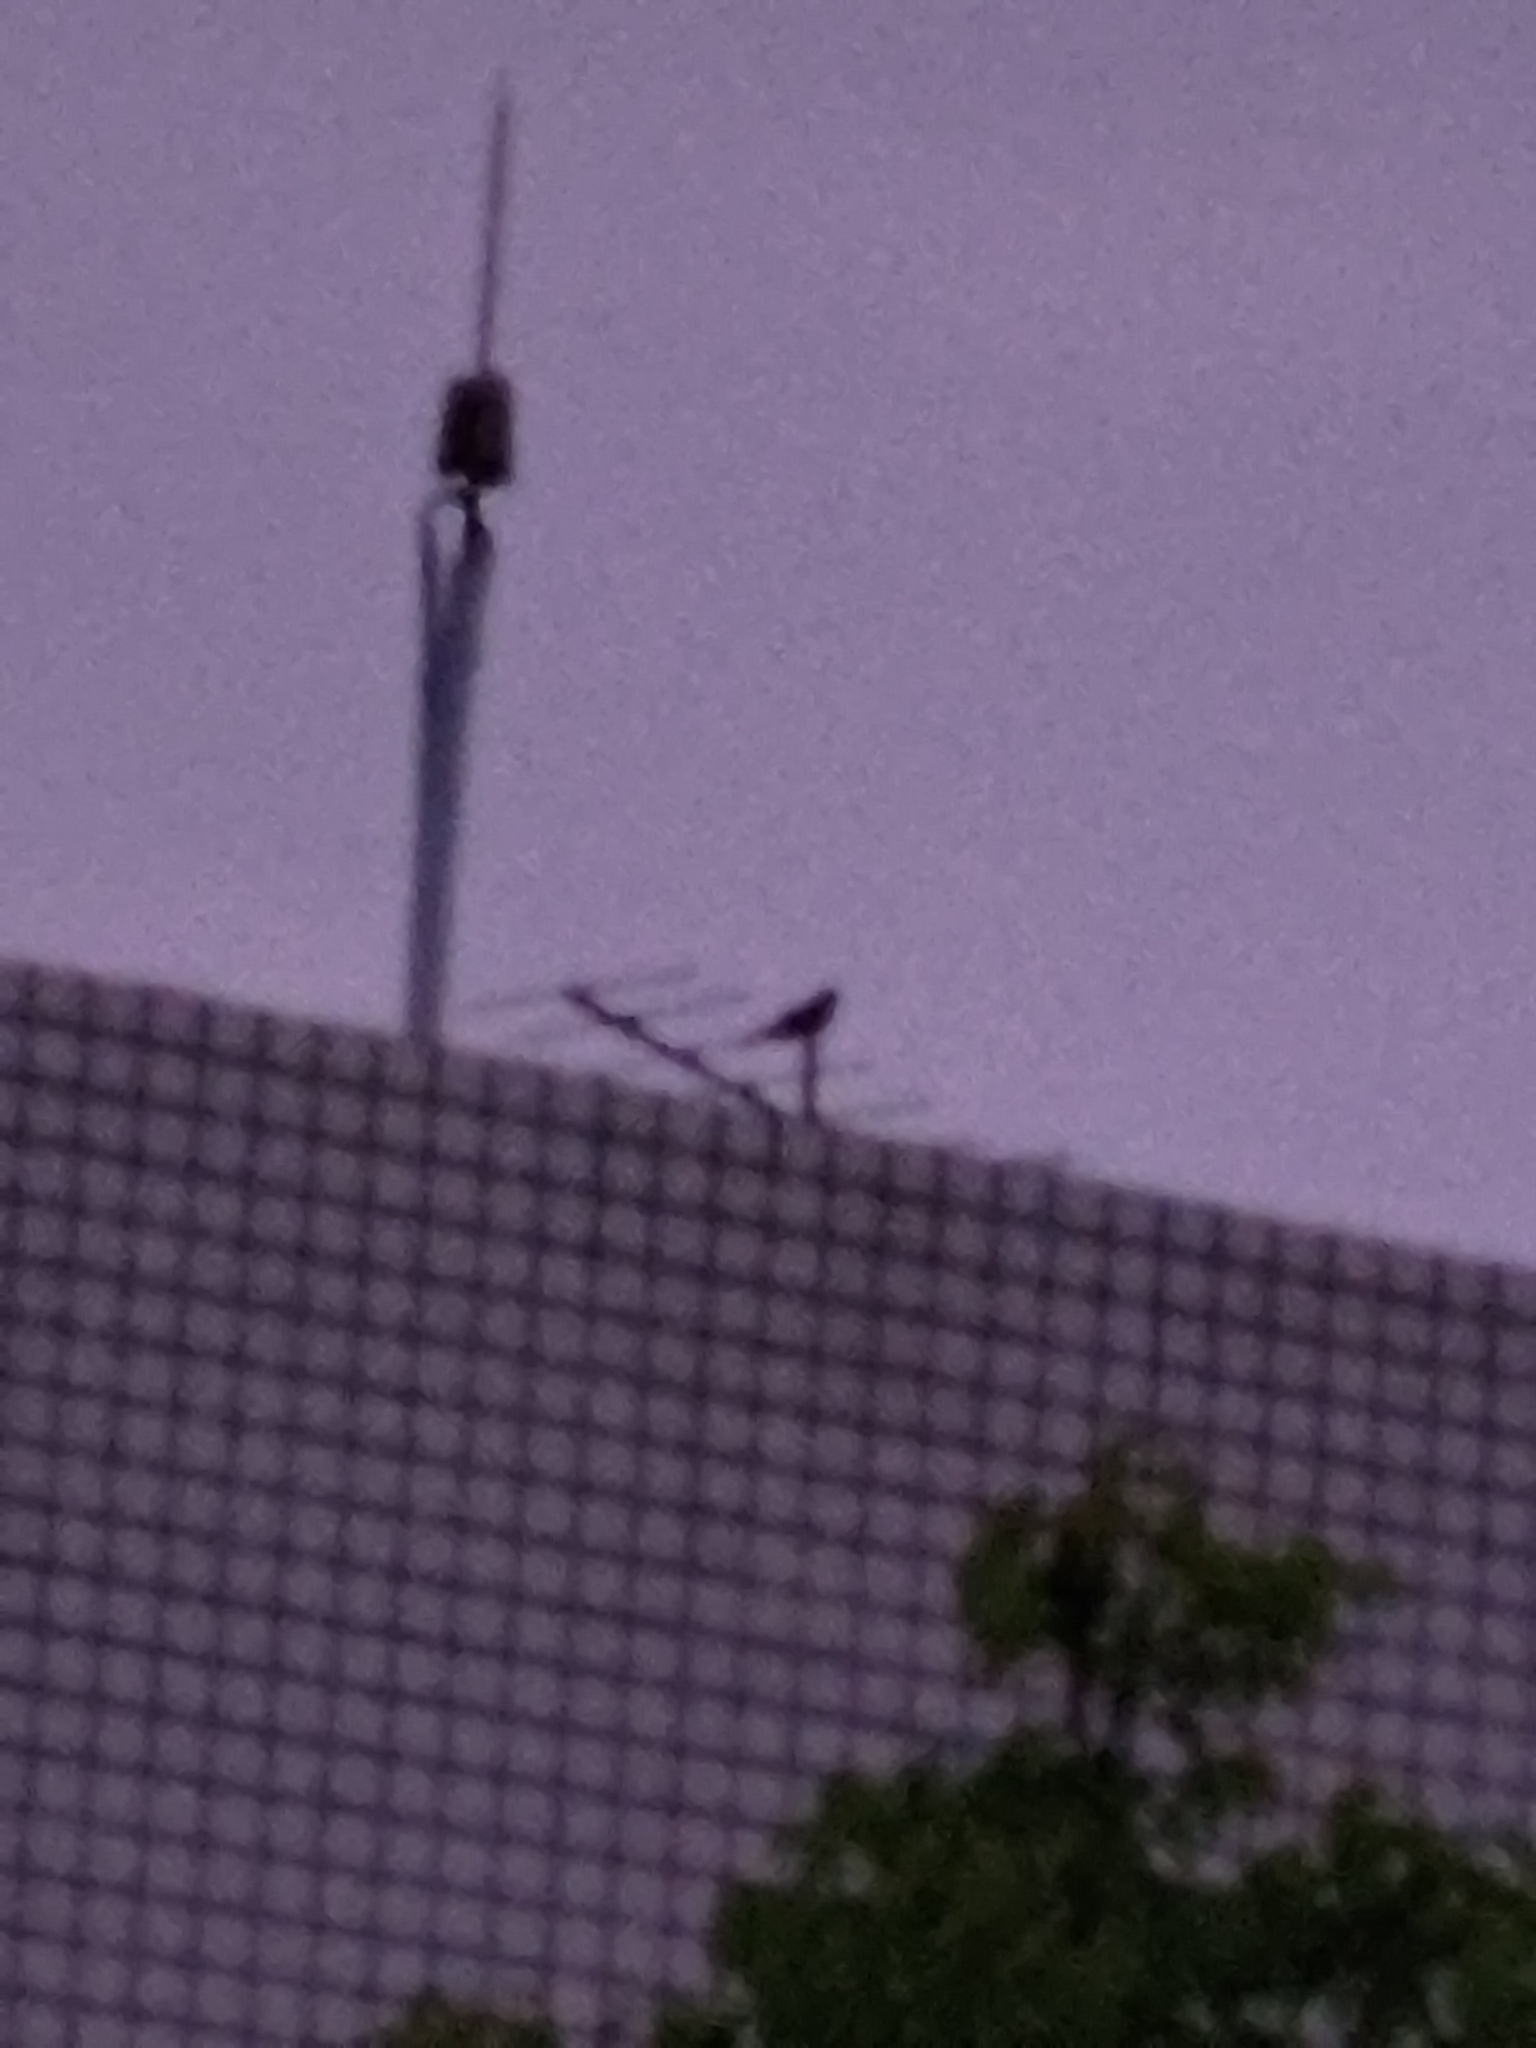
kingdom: Animalia
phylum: Chordata
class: Aves
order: Caprimulgiformes
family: Caprimulgidae
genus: Caprimulgus
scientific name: Caprimulgus affinis
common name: Savanna nightjar
